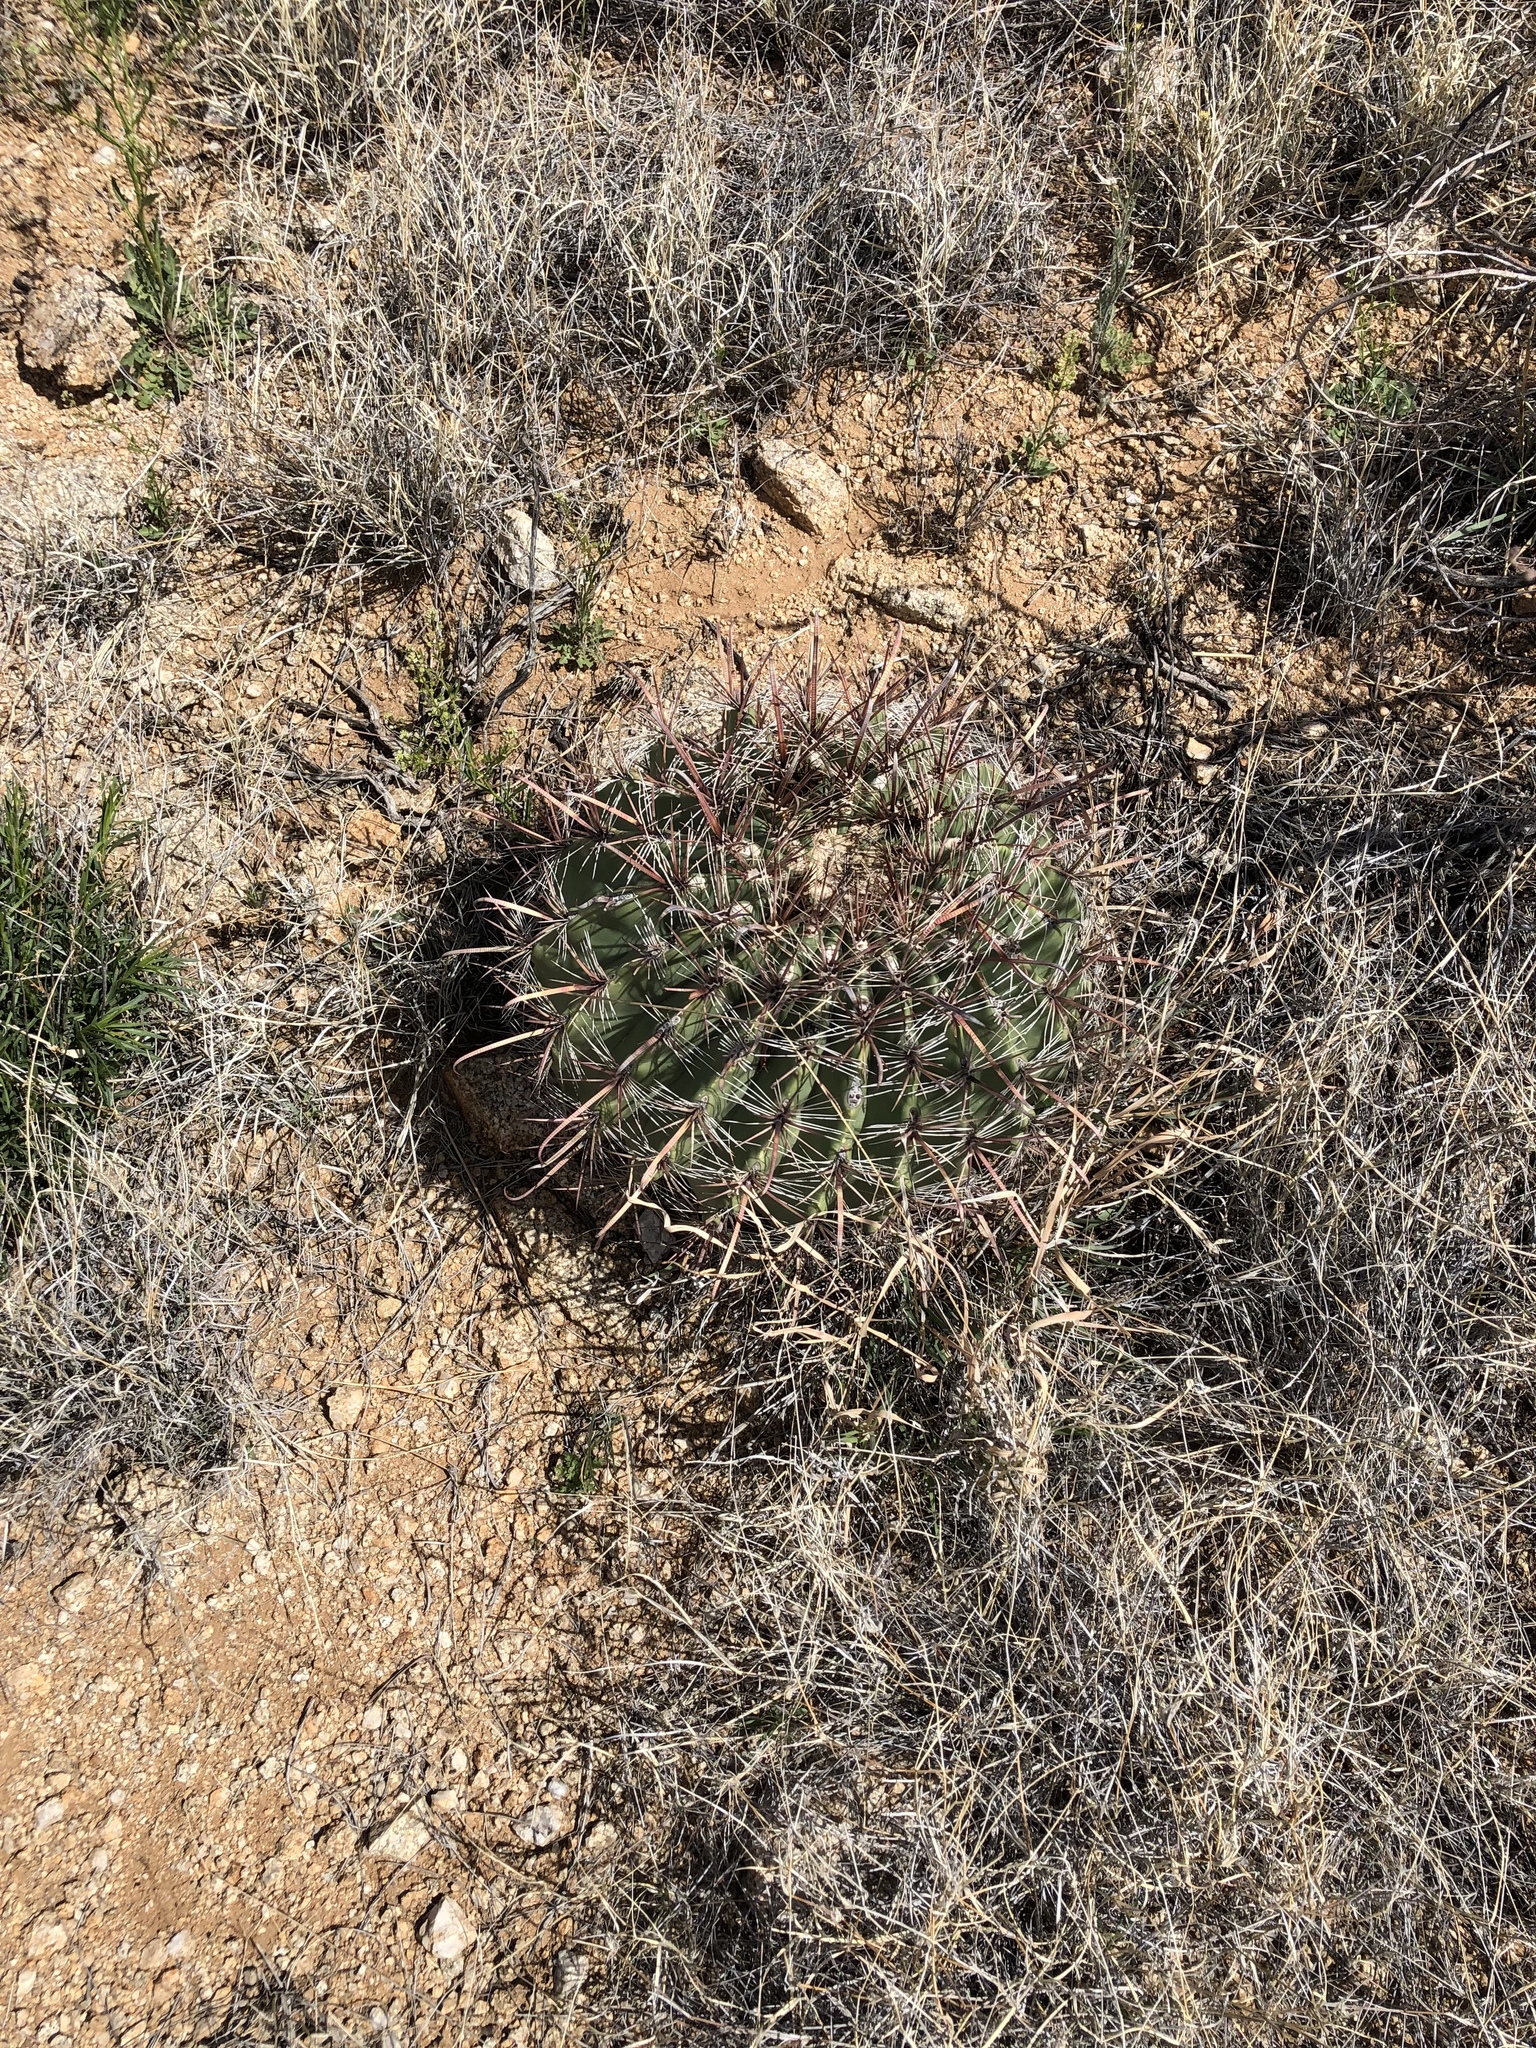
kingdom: Plantae
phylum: Tracheophyta
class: Magnoliopsida
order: Caryophyllales
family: Cactaceae
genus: Ferocactus
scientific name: Ferocactus wislizeni
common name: Candy barrel cactus
